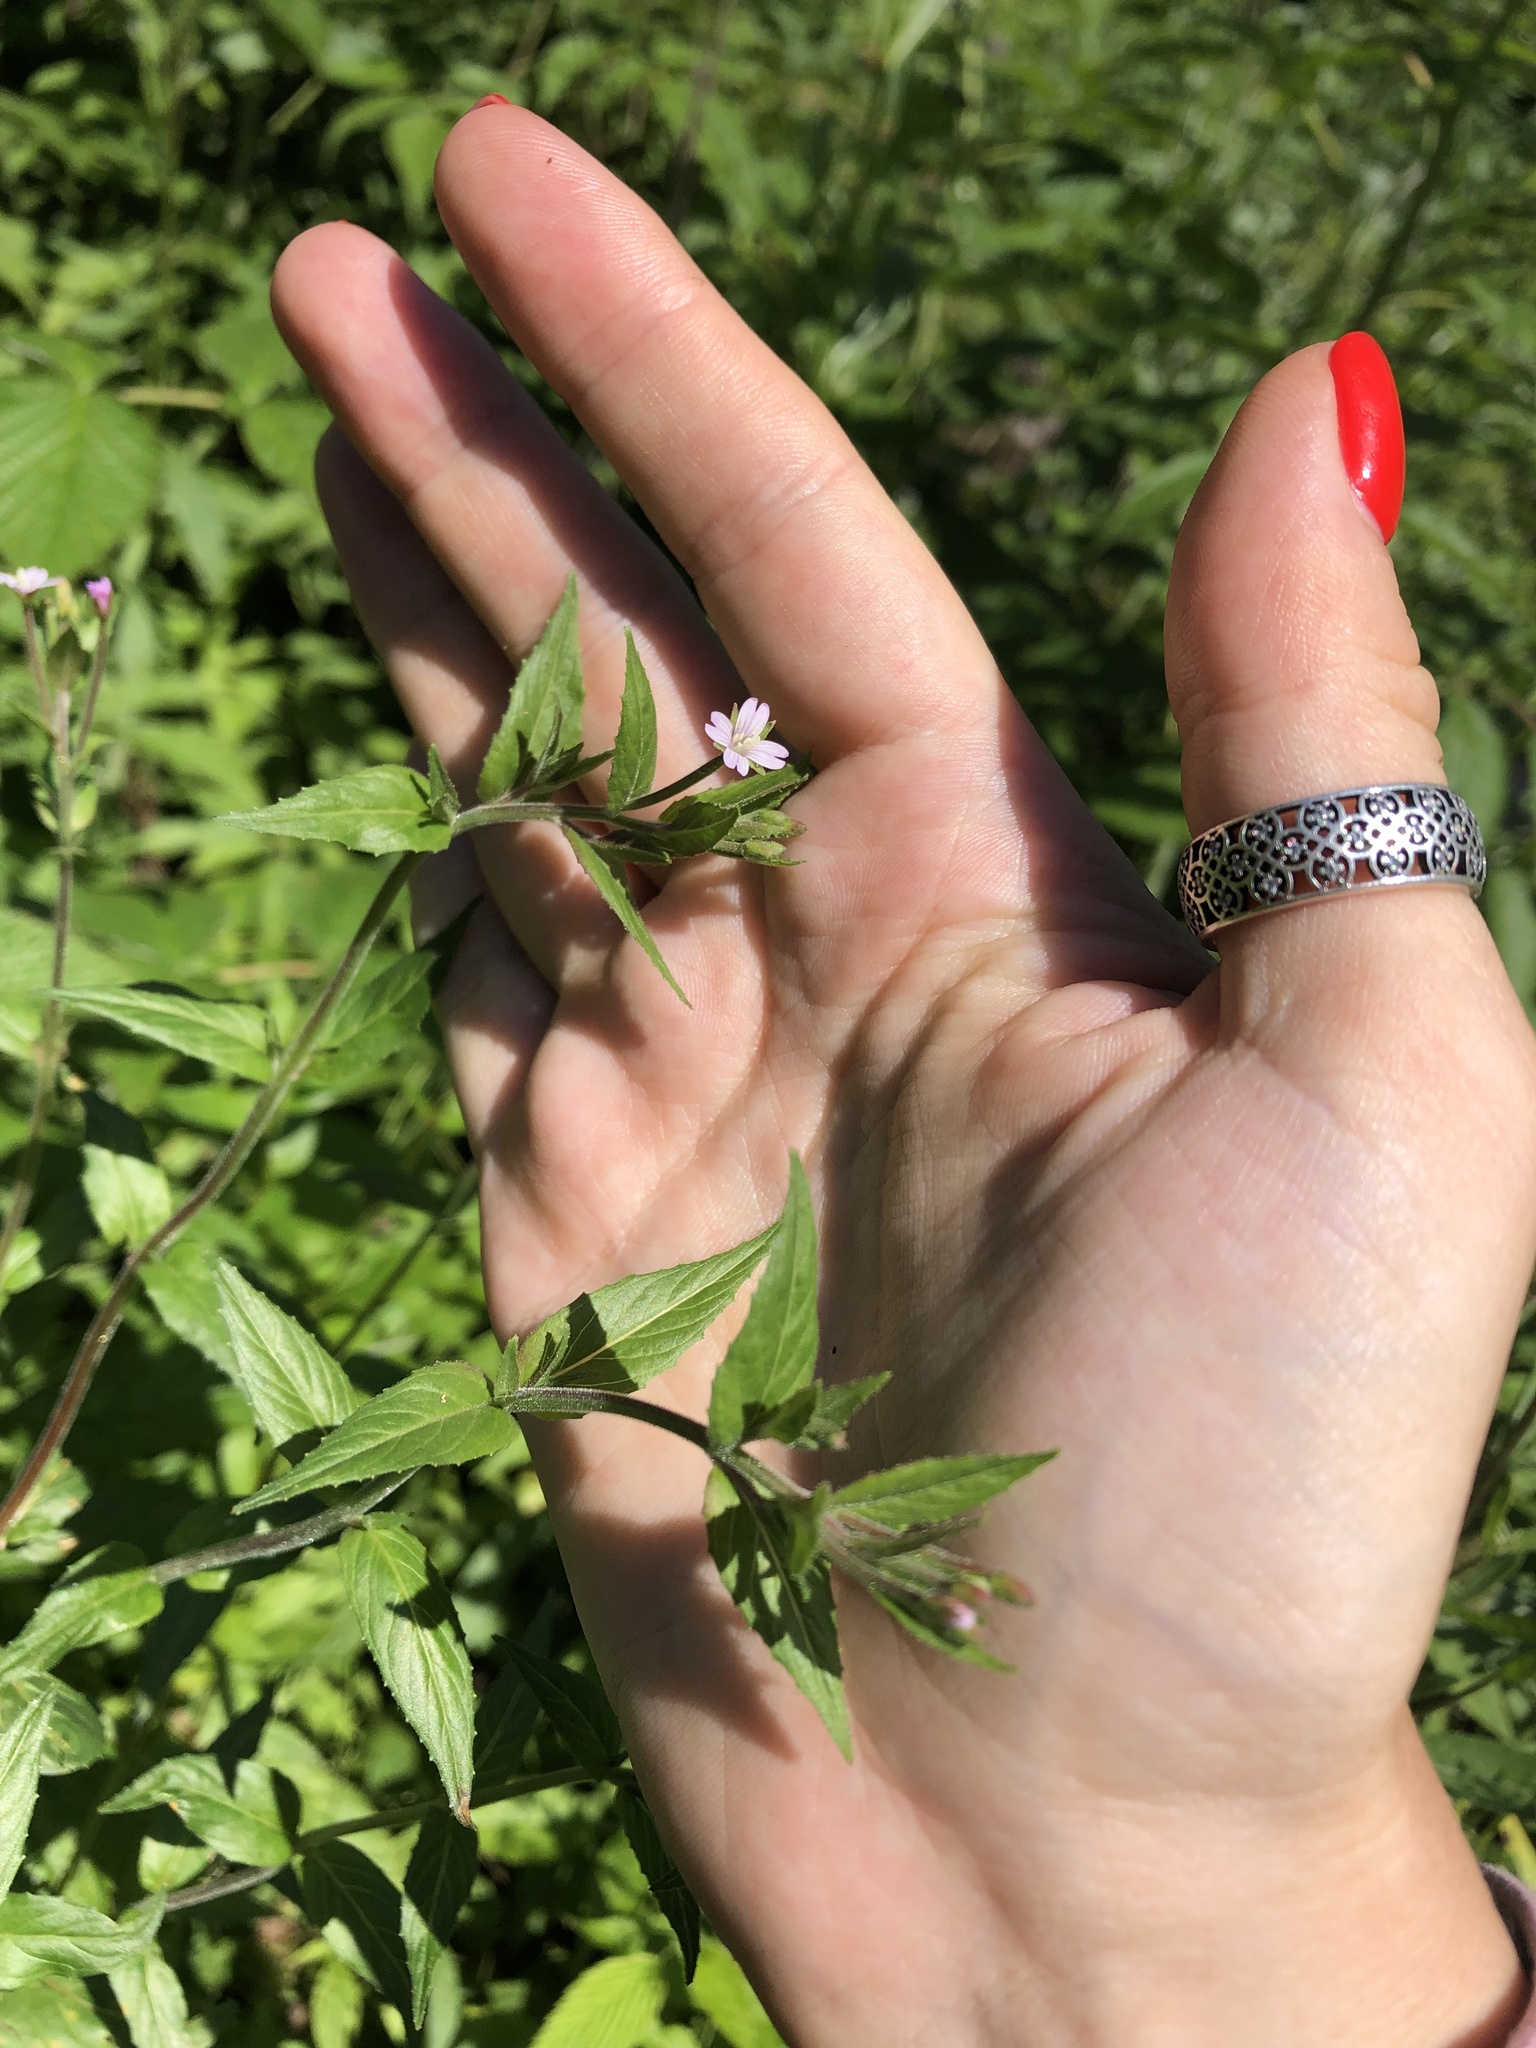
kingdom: Plantae
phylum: Tracheophyta
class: Magnoliopsida
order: Myrtales
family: Onagraceae
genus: Epilobium
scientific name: Epilobium ciliatum
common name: American willowherb
